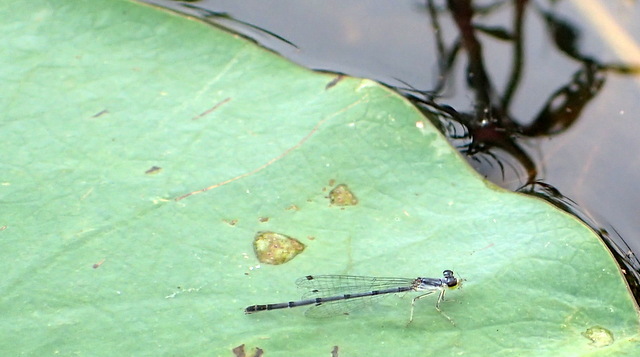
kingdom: Animalia
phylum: Arthropoda
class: Insecta
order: Odonata
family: Coenagrionidae
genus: Ischnura
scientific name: Ischnura posita
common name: Fragile forktail
